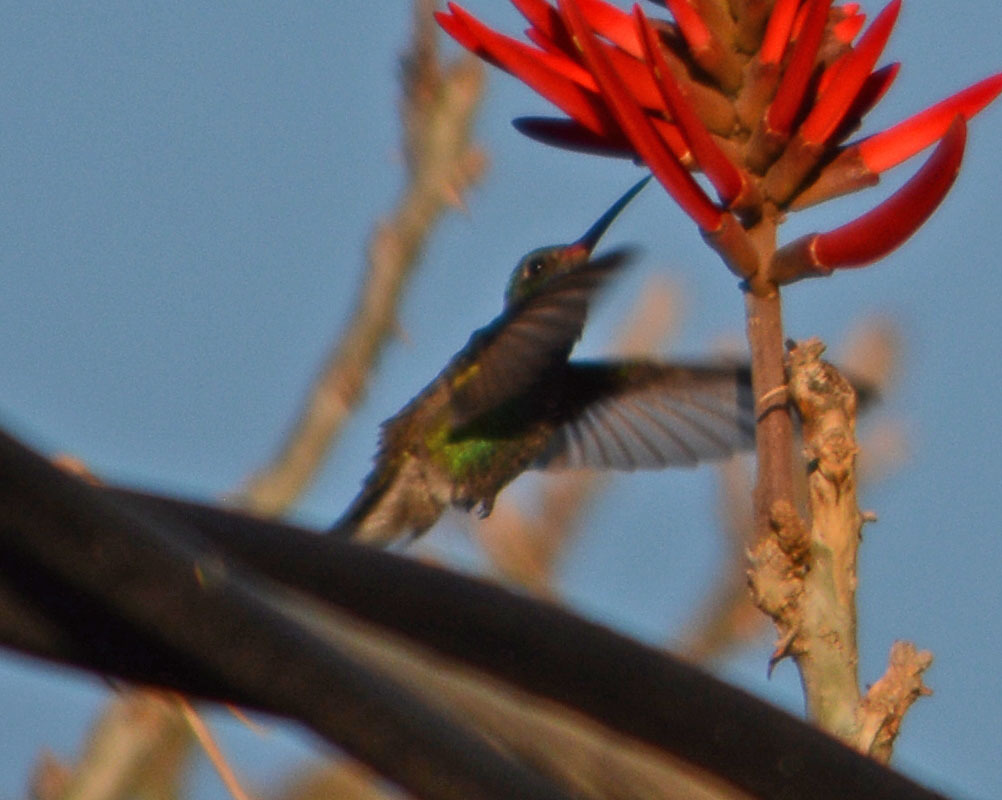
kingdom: Animalia
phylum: Chordata
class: Aves
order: Apodiformes
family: Trochilidae
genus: Saucerottia
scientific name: Saucerottia beryllina
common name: Berylline hummingbird
